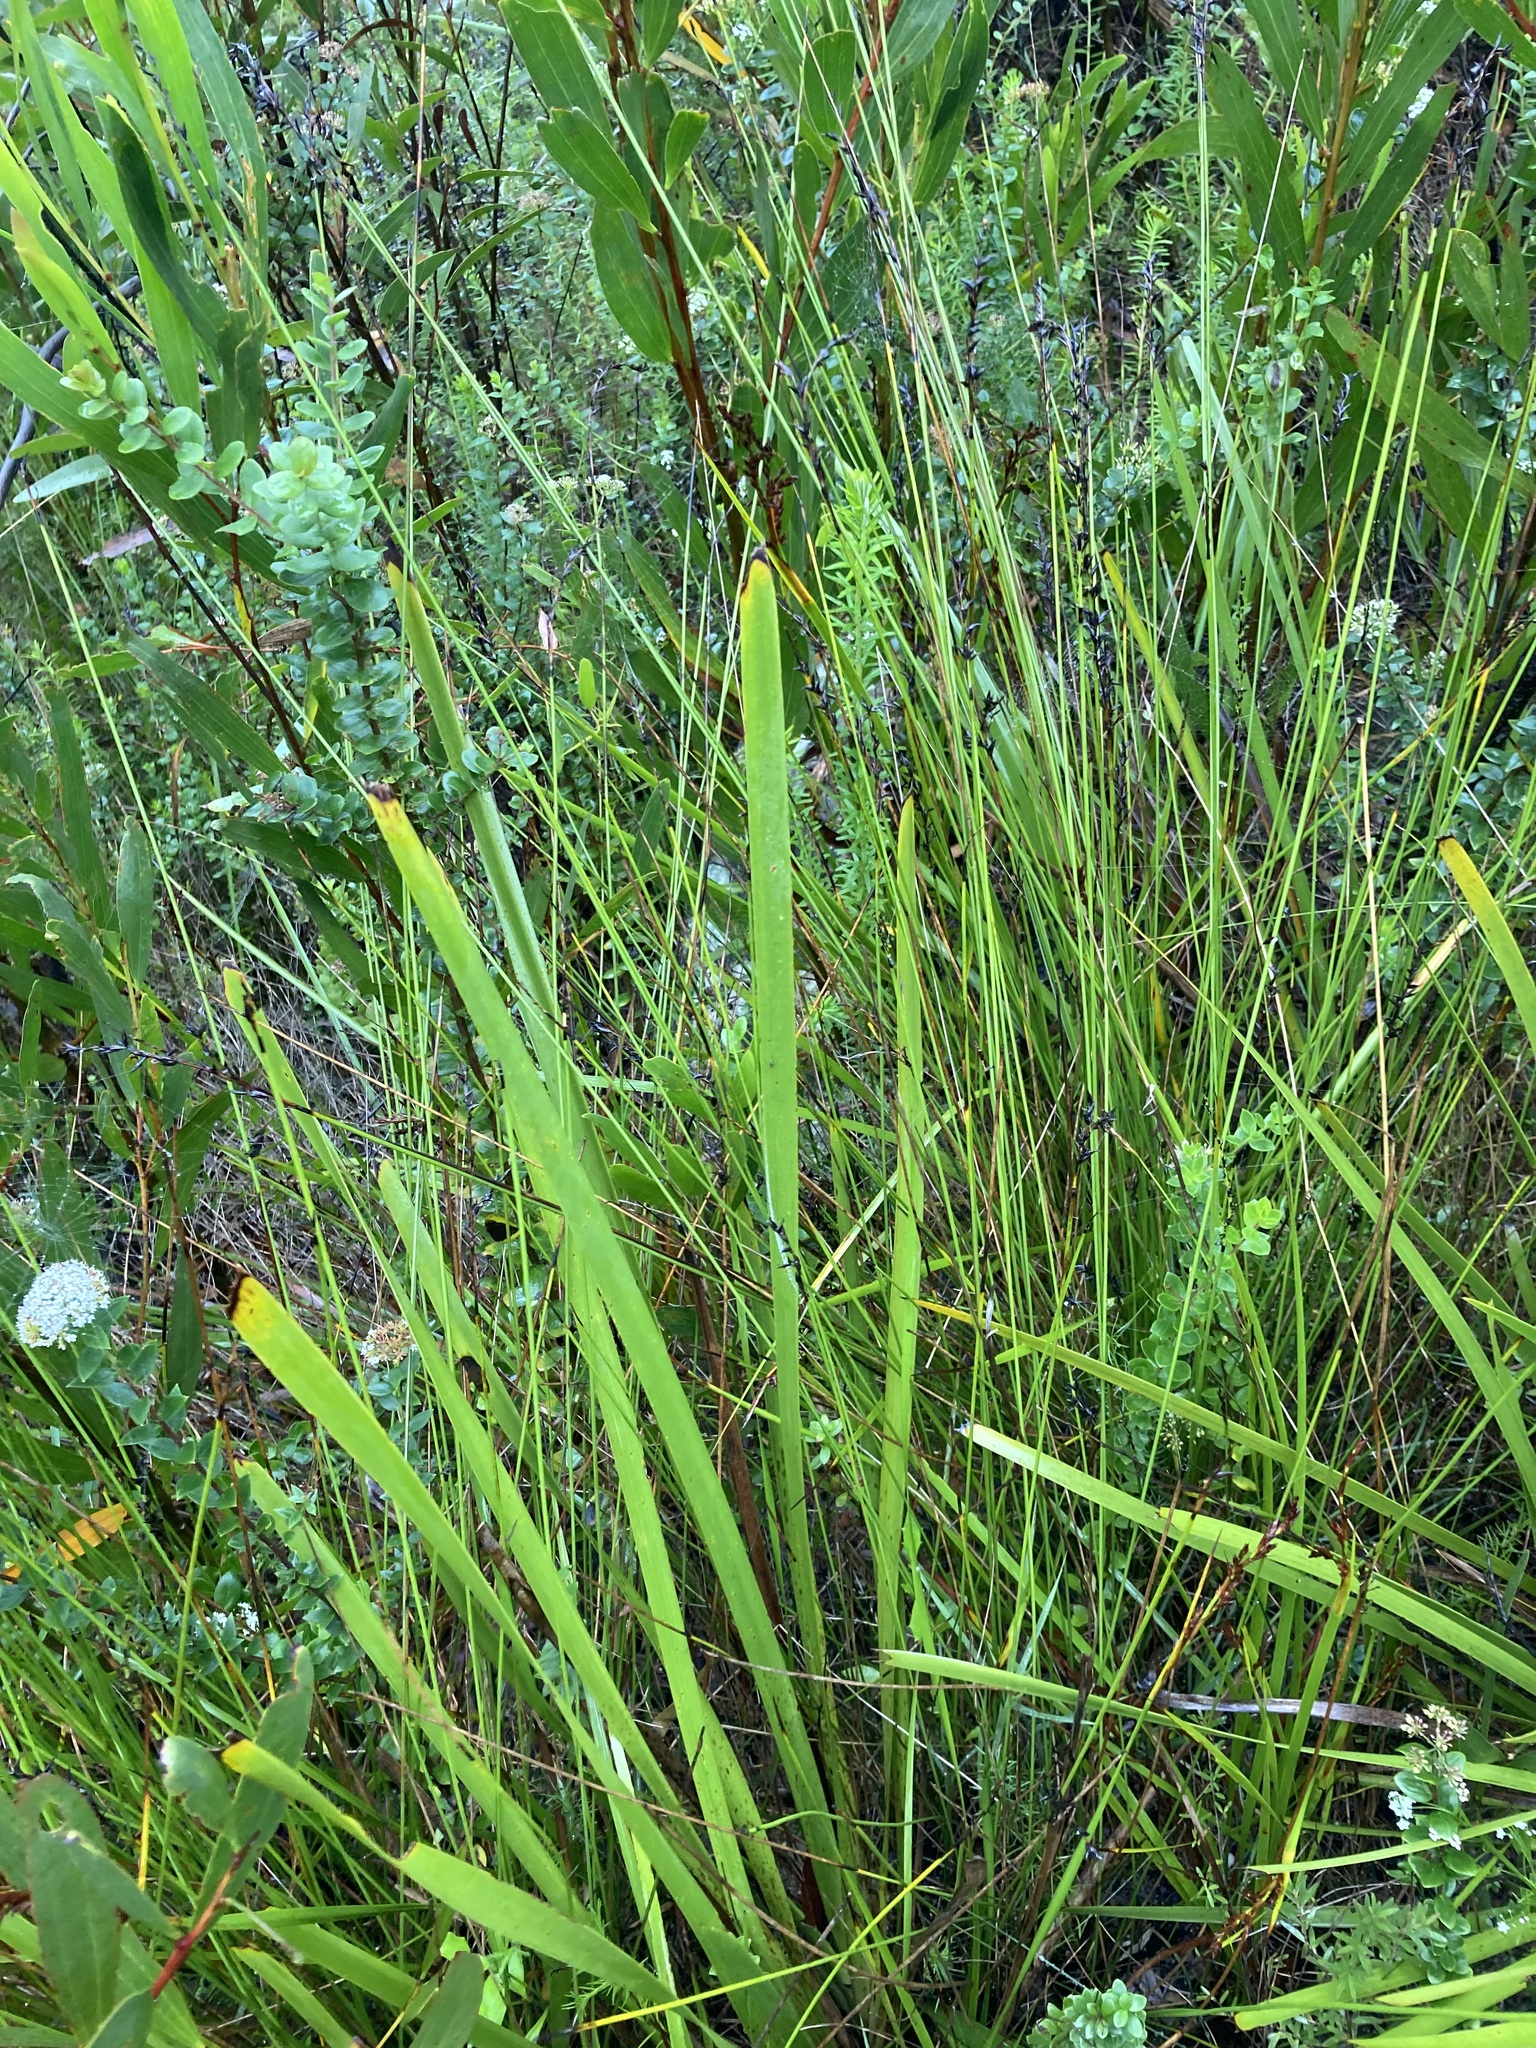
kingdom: Plantae
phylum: Tracheophyta
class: Liliopsida
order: Asparagales
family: Asparagaceae
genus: Lomandra
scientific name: Lomandra longifolia
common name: Longleaf mat-rush
